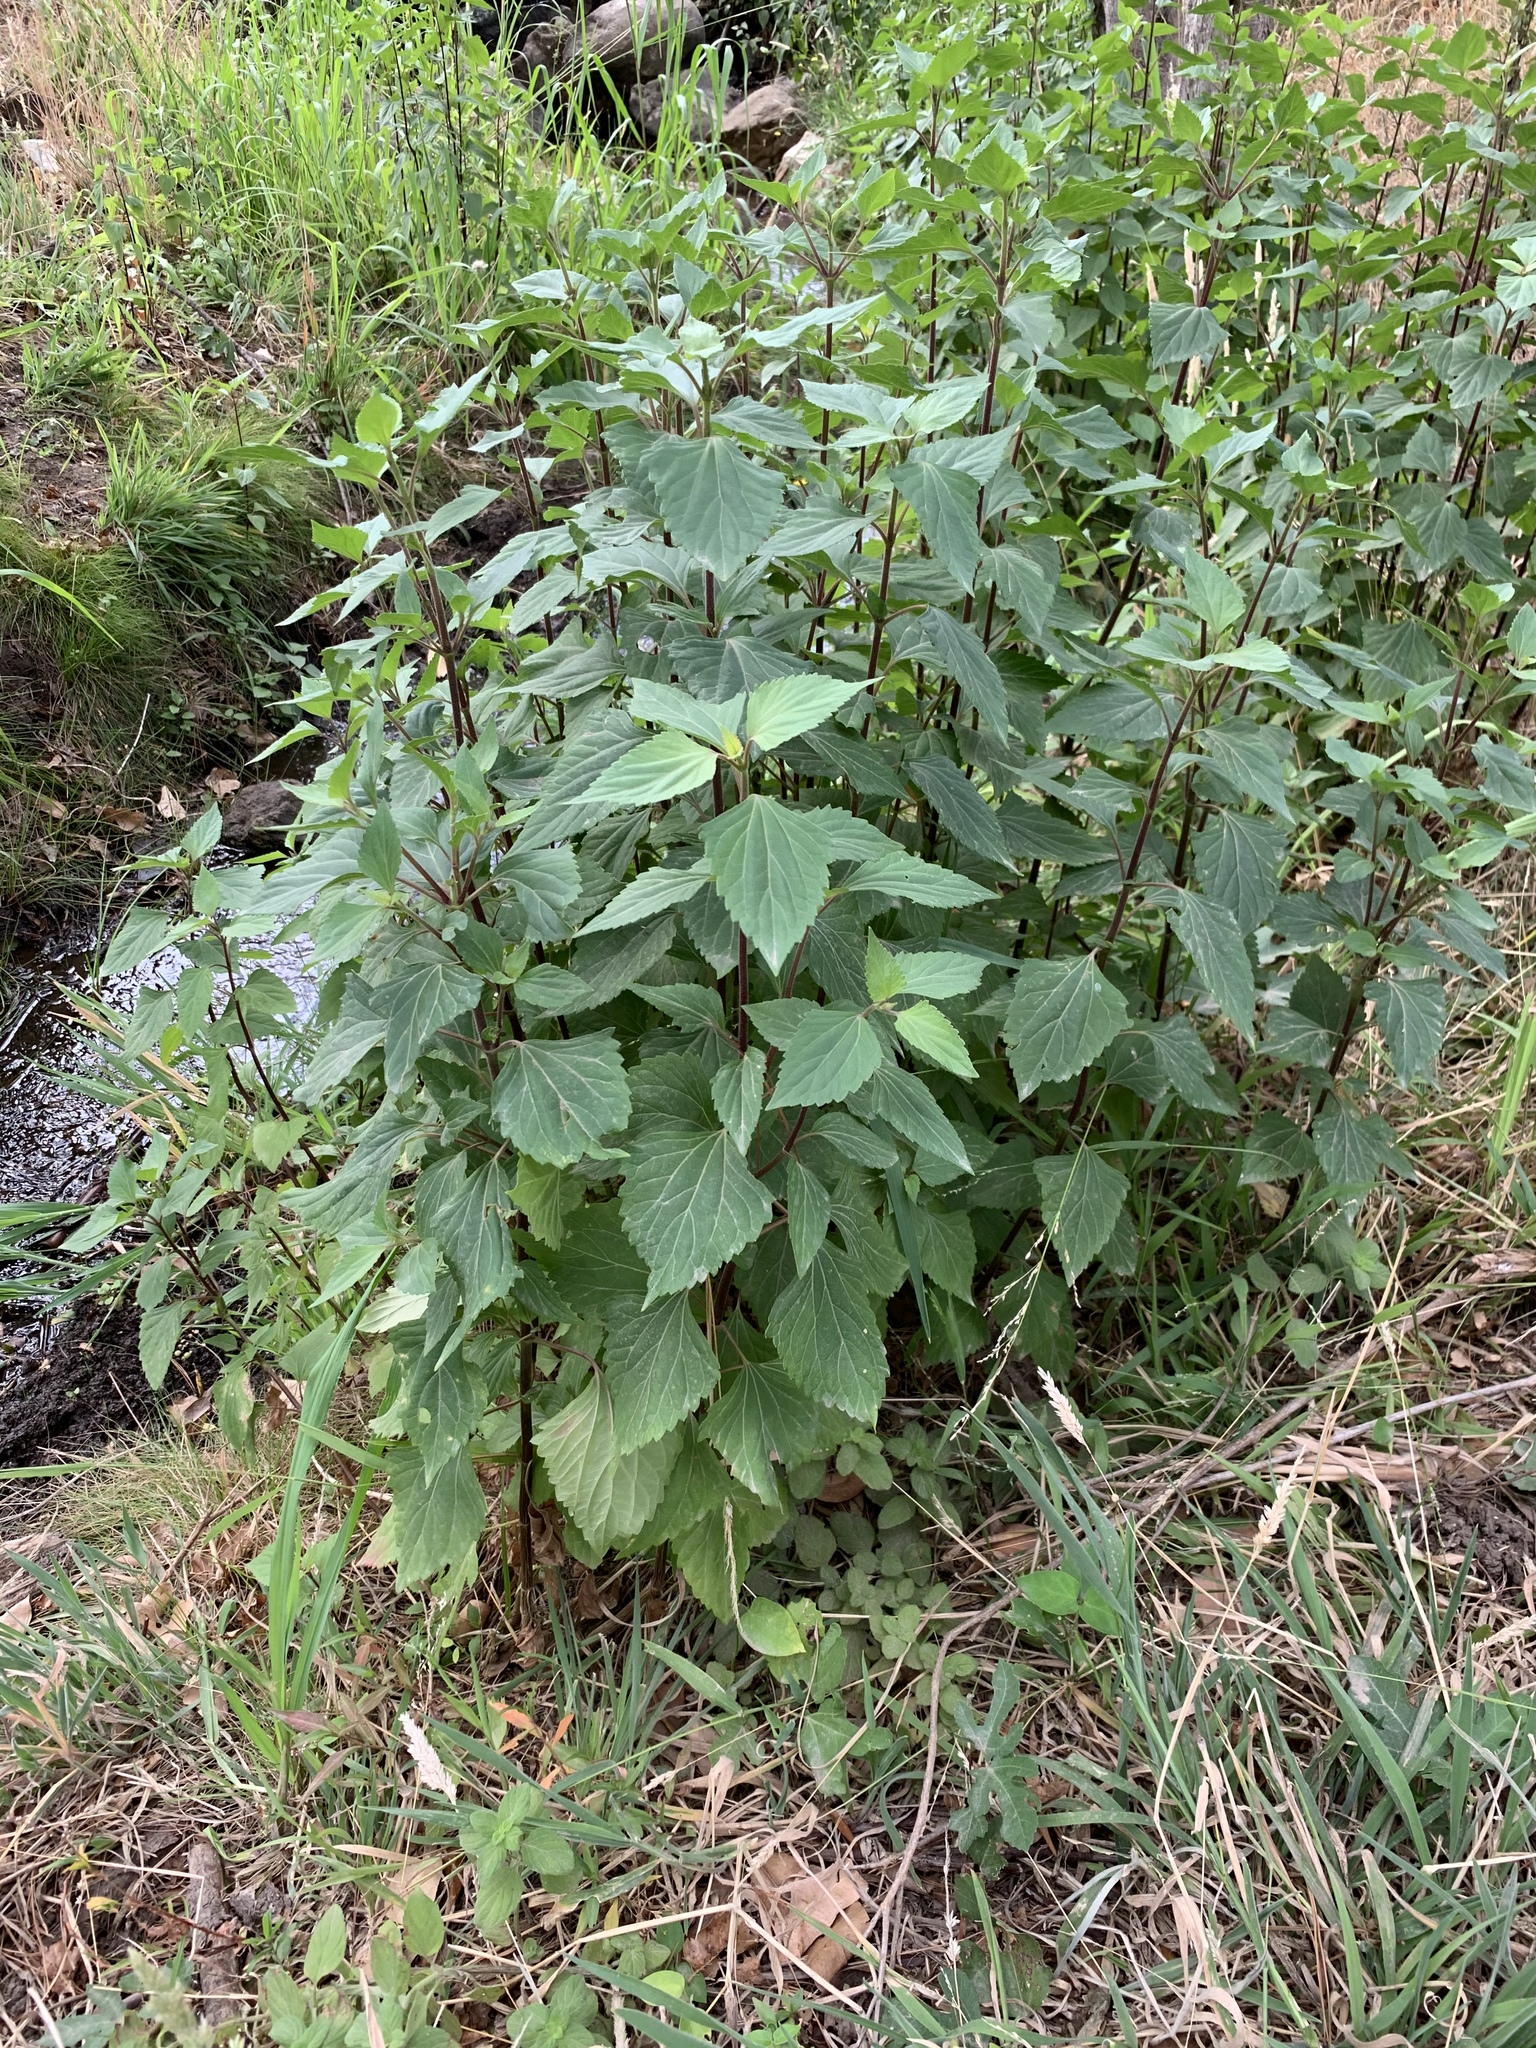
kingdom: Plantae
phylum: Tracheophyta
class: Magnoliopsida
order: Asterales
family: Asteraceae
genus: Ageratina
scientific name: Ageratina adenophora
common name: Sticky snakeroot
